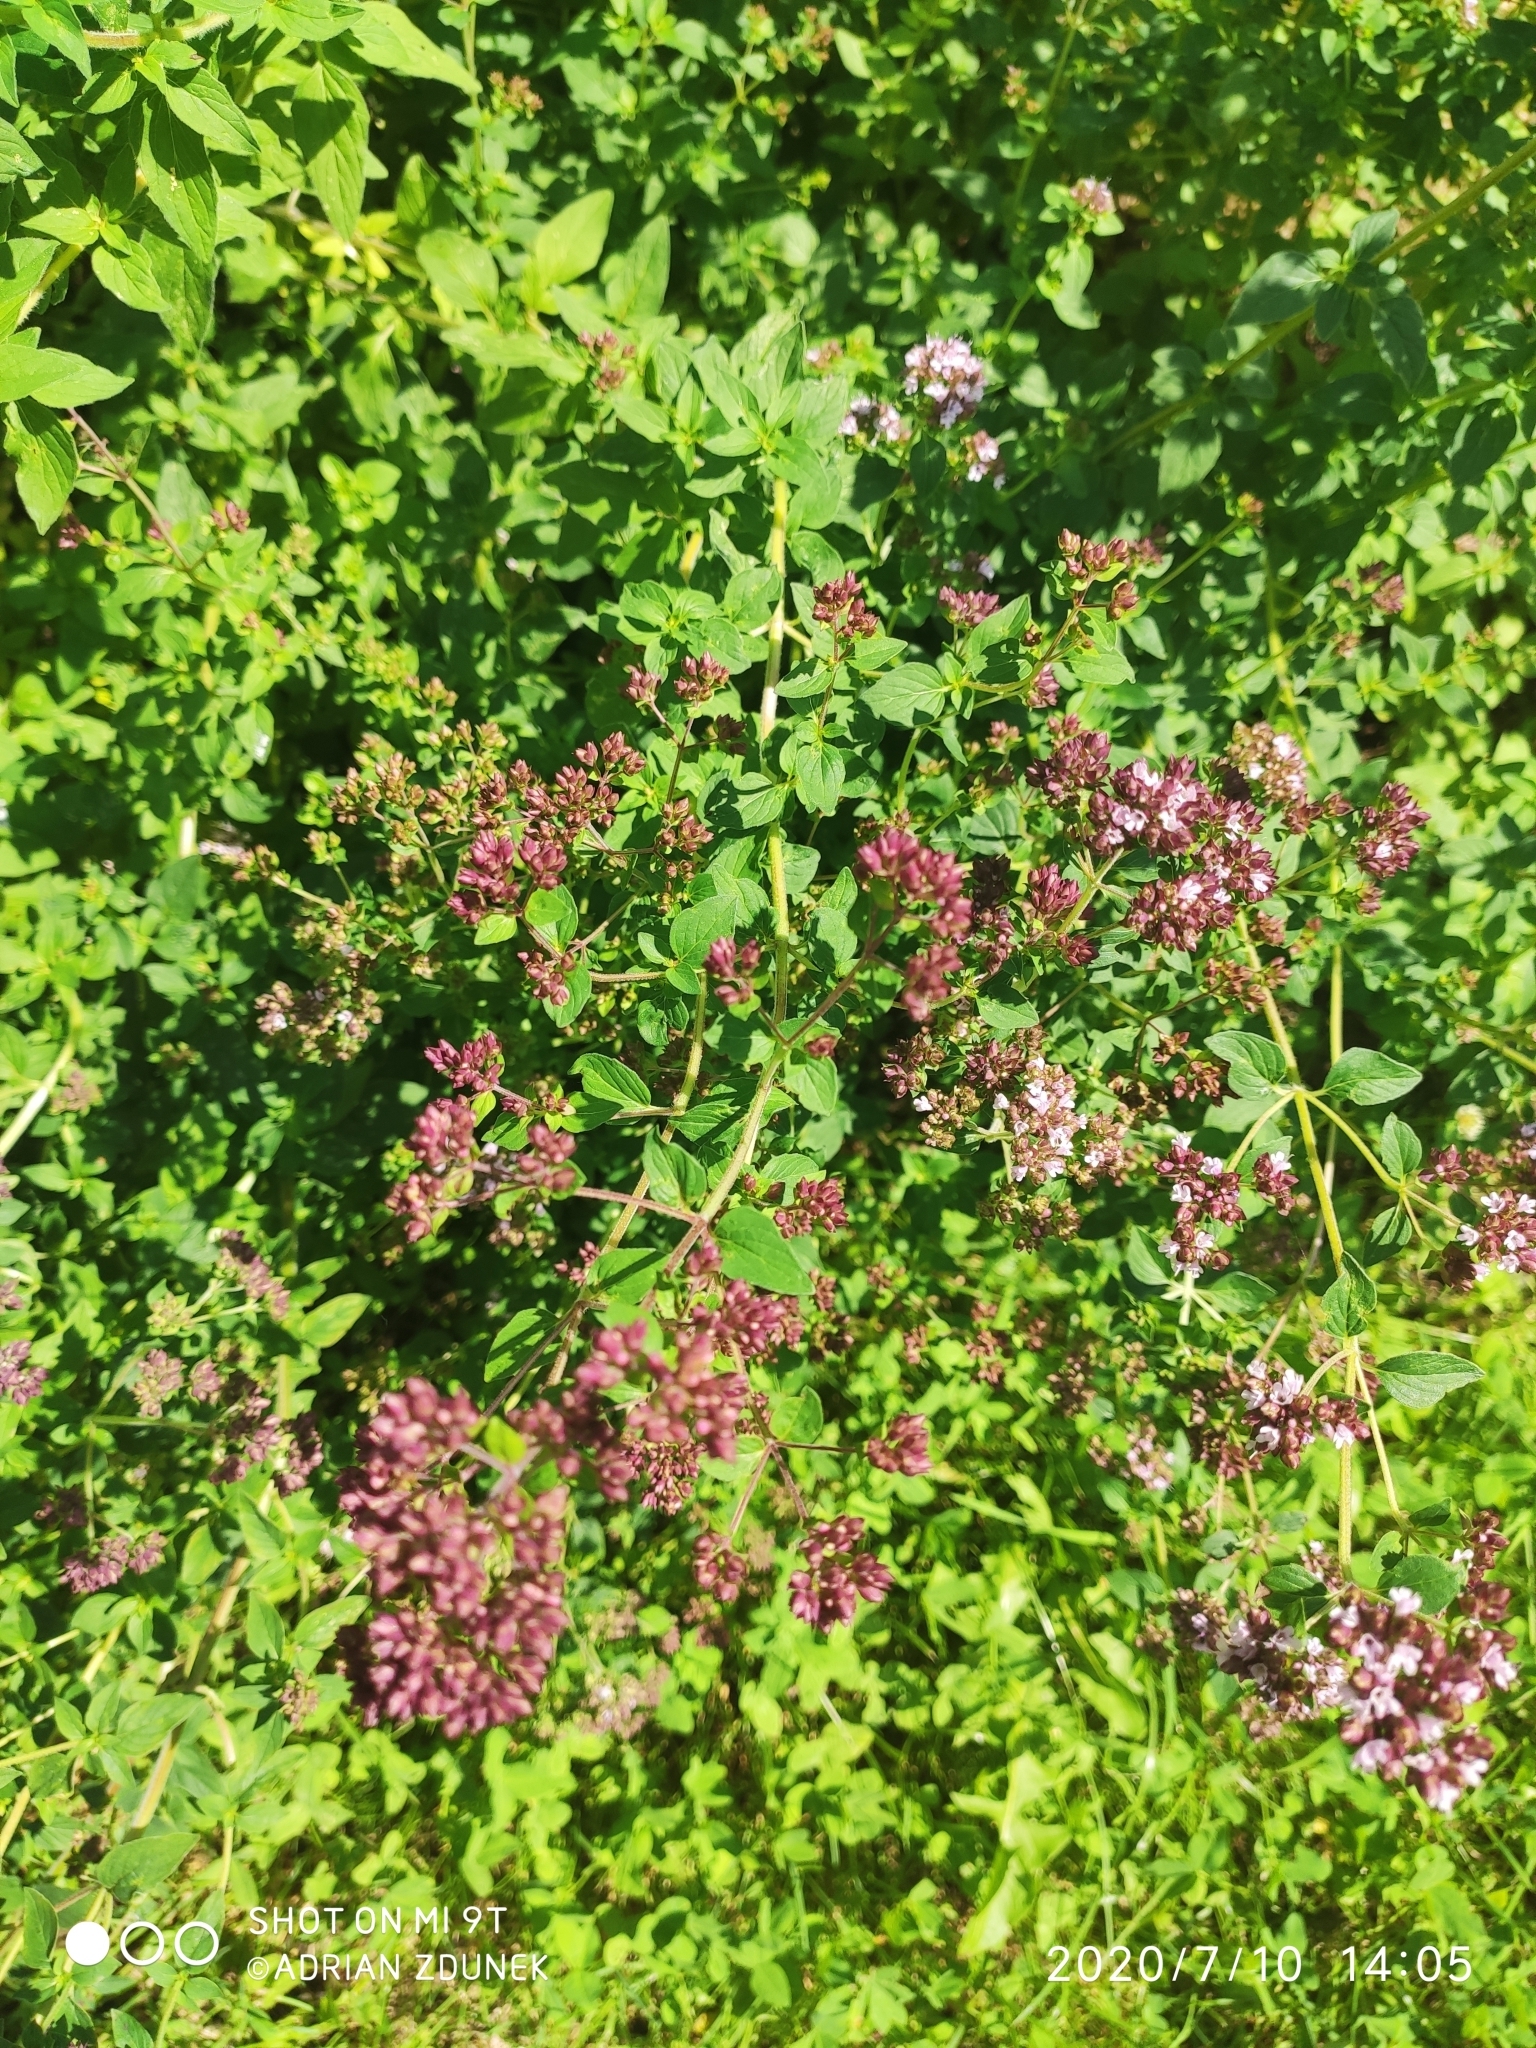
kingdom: Plantae
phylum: Tracheophyta
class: Magnoliopsida
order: Lamiales
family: Lamiaceae
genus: Origanum
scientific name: Origanum vulgare
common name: Wild marjoram
